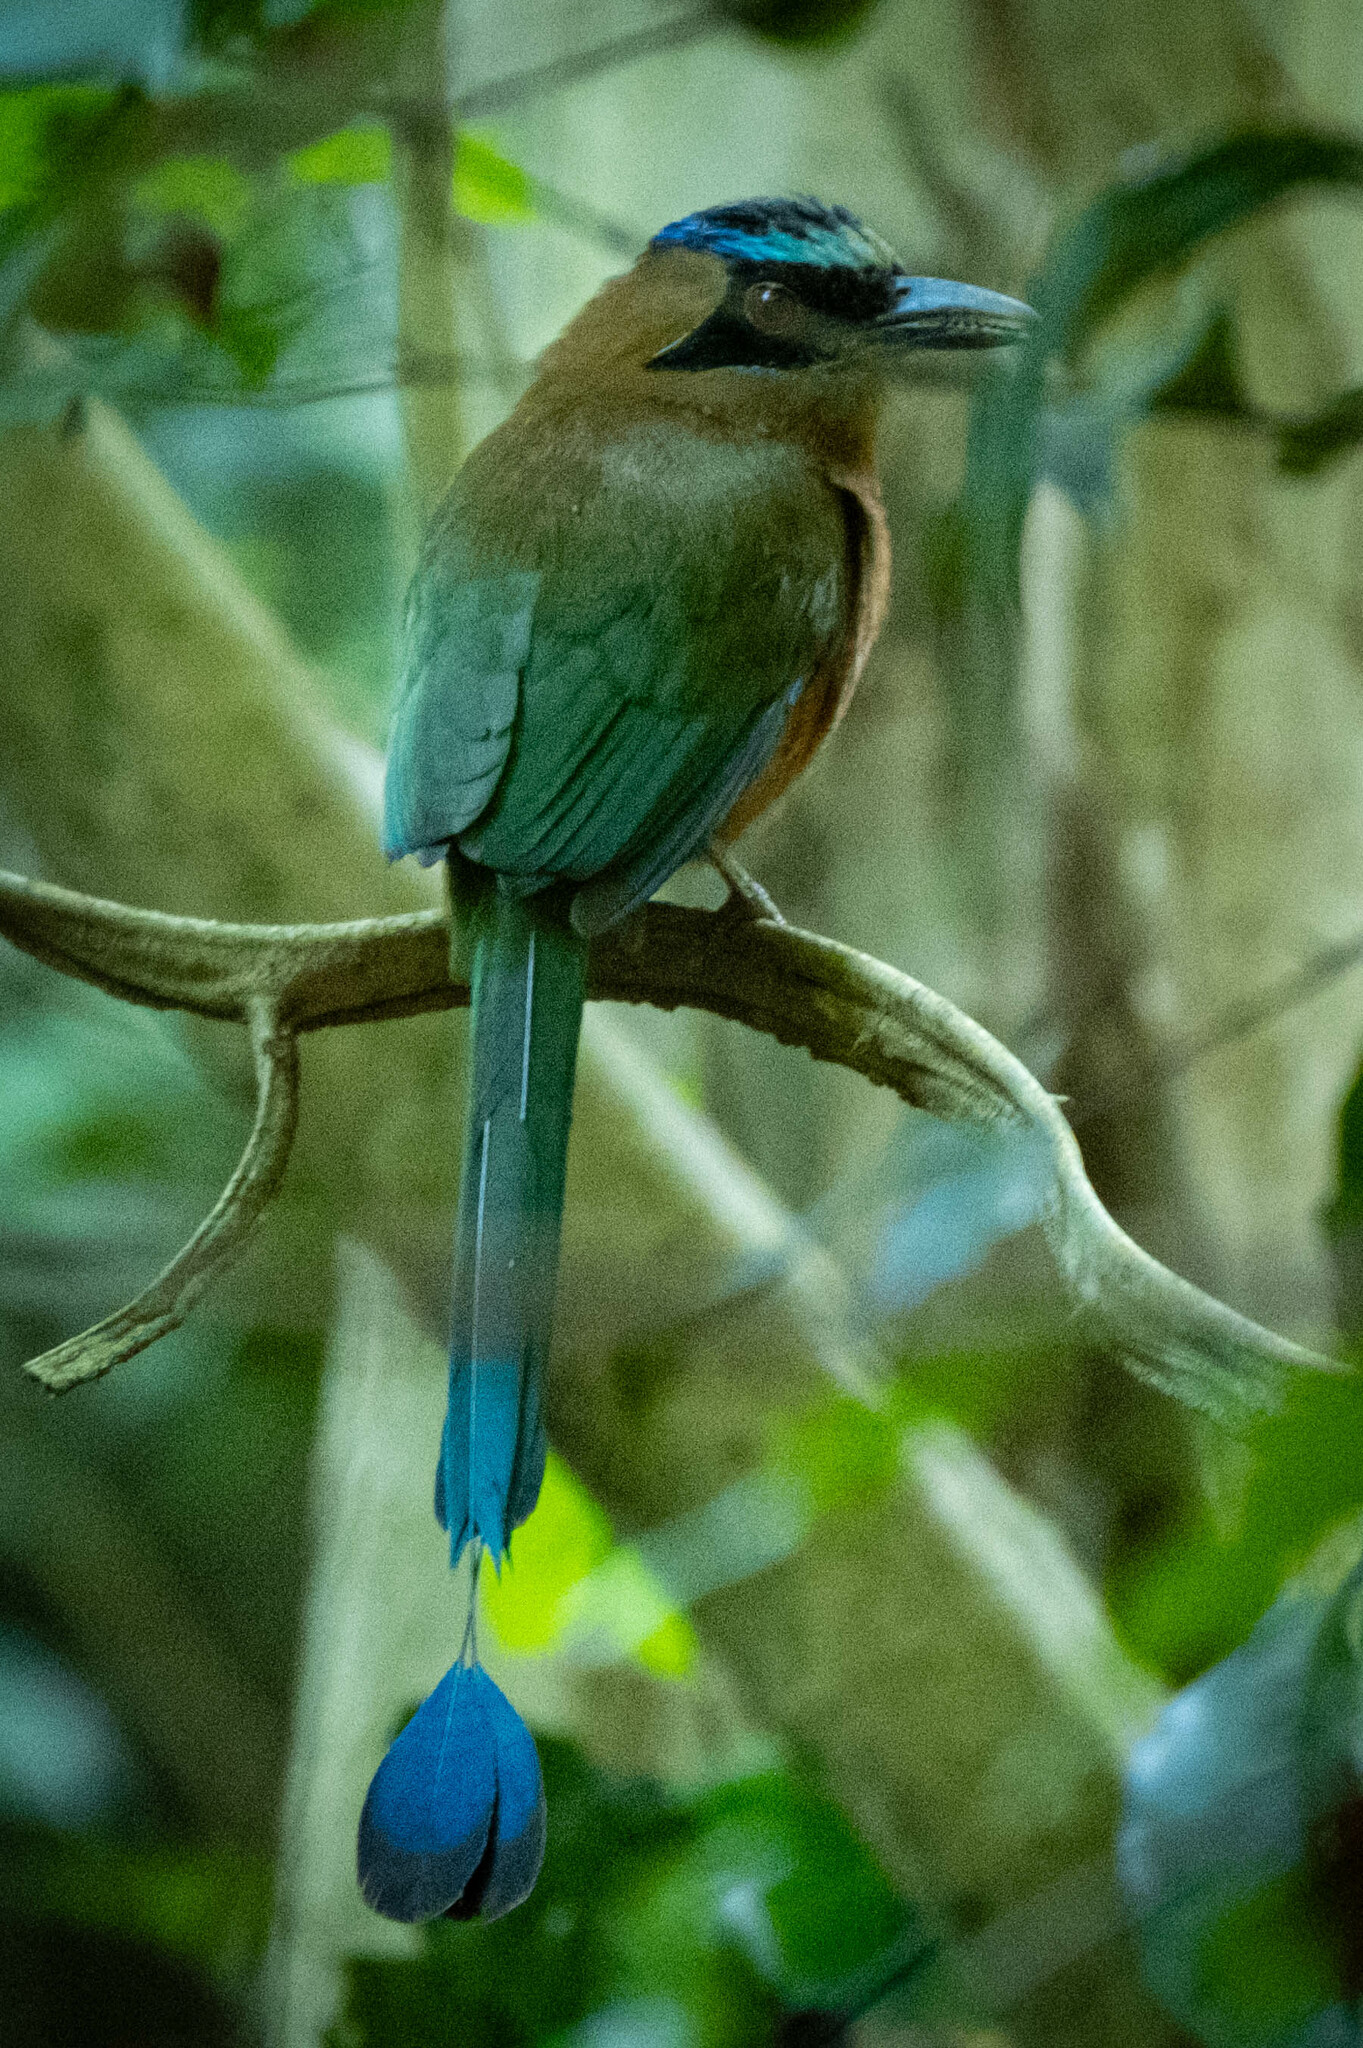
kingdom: Animalia
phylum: Chordata
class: Aves
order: Coraciiformes
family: Momotidae
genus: Momotus
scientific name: Momotus subrufescens
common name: Whooping motmot
